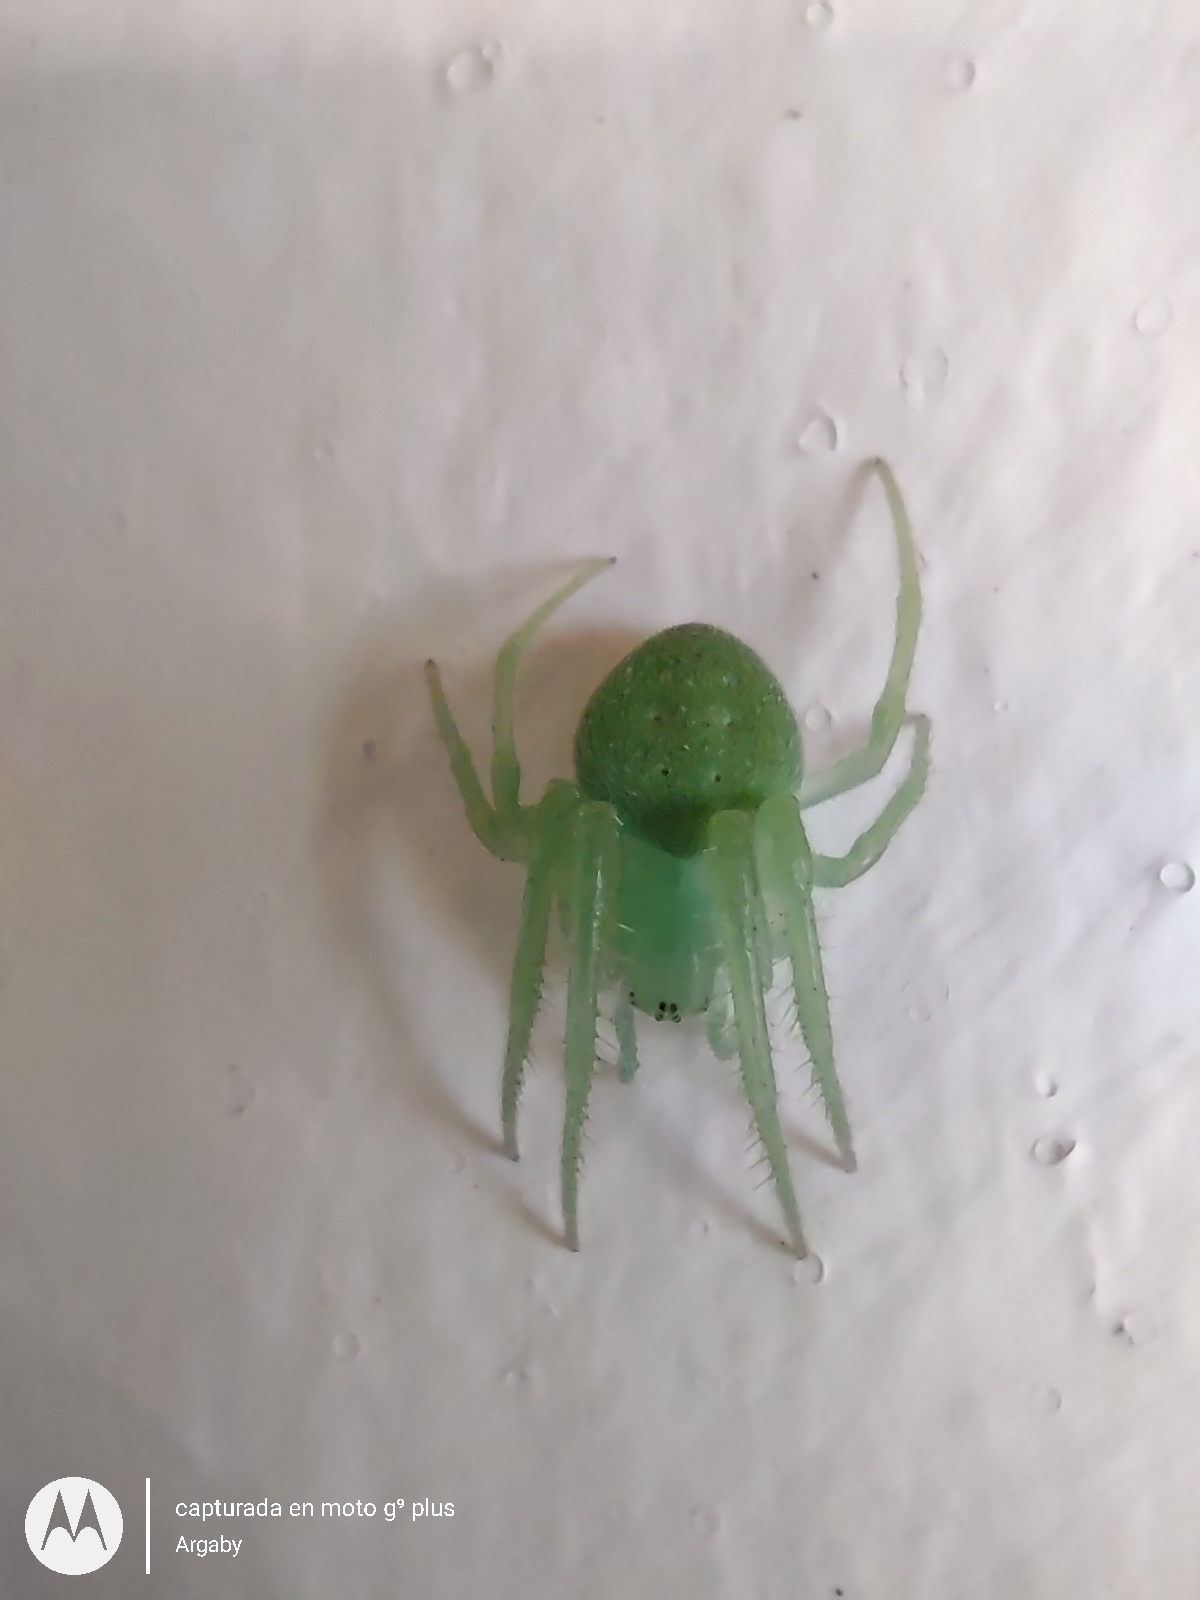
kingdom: Animalia
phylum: Arthropoda
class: Arachnida
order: Araneae
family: Araneidae
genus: Araneus
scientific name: Araneus uniformis
